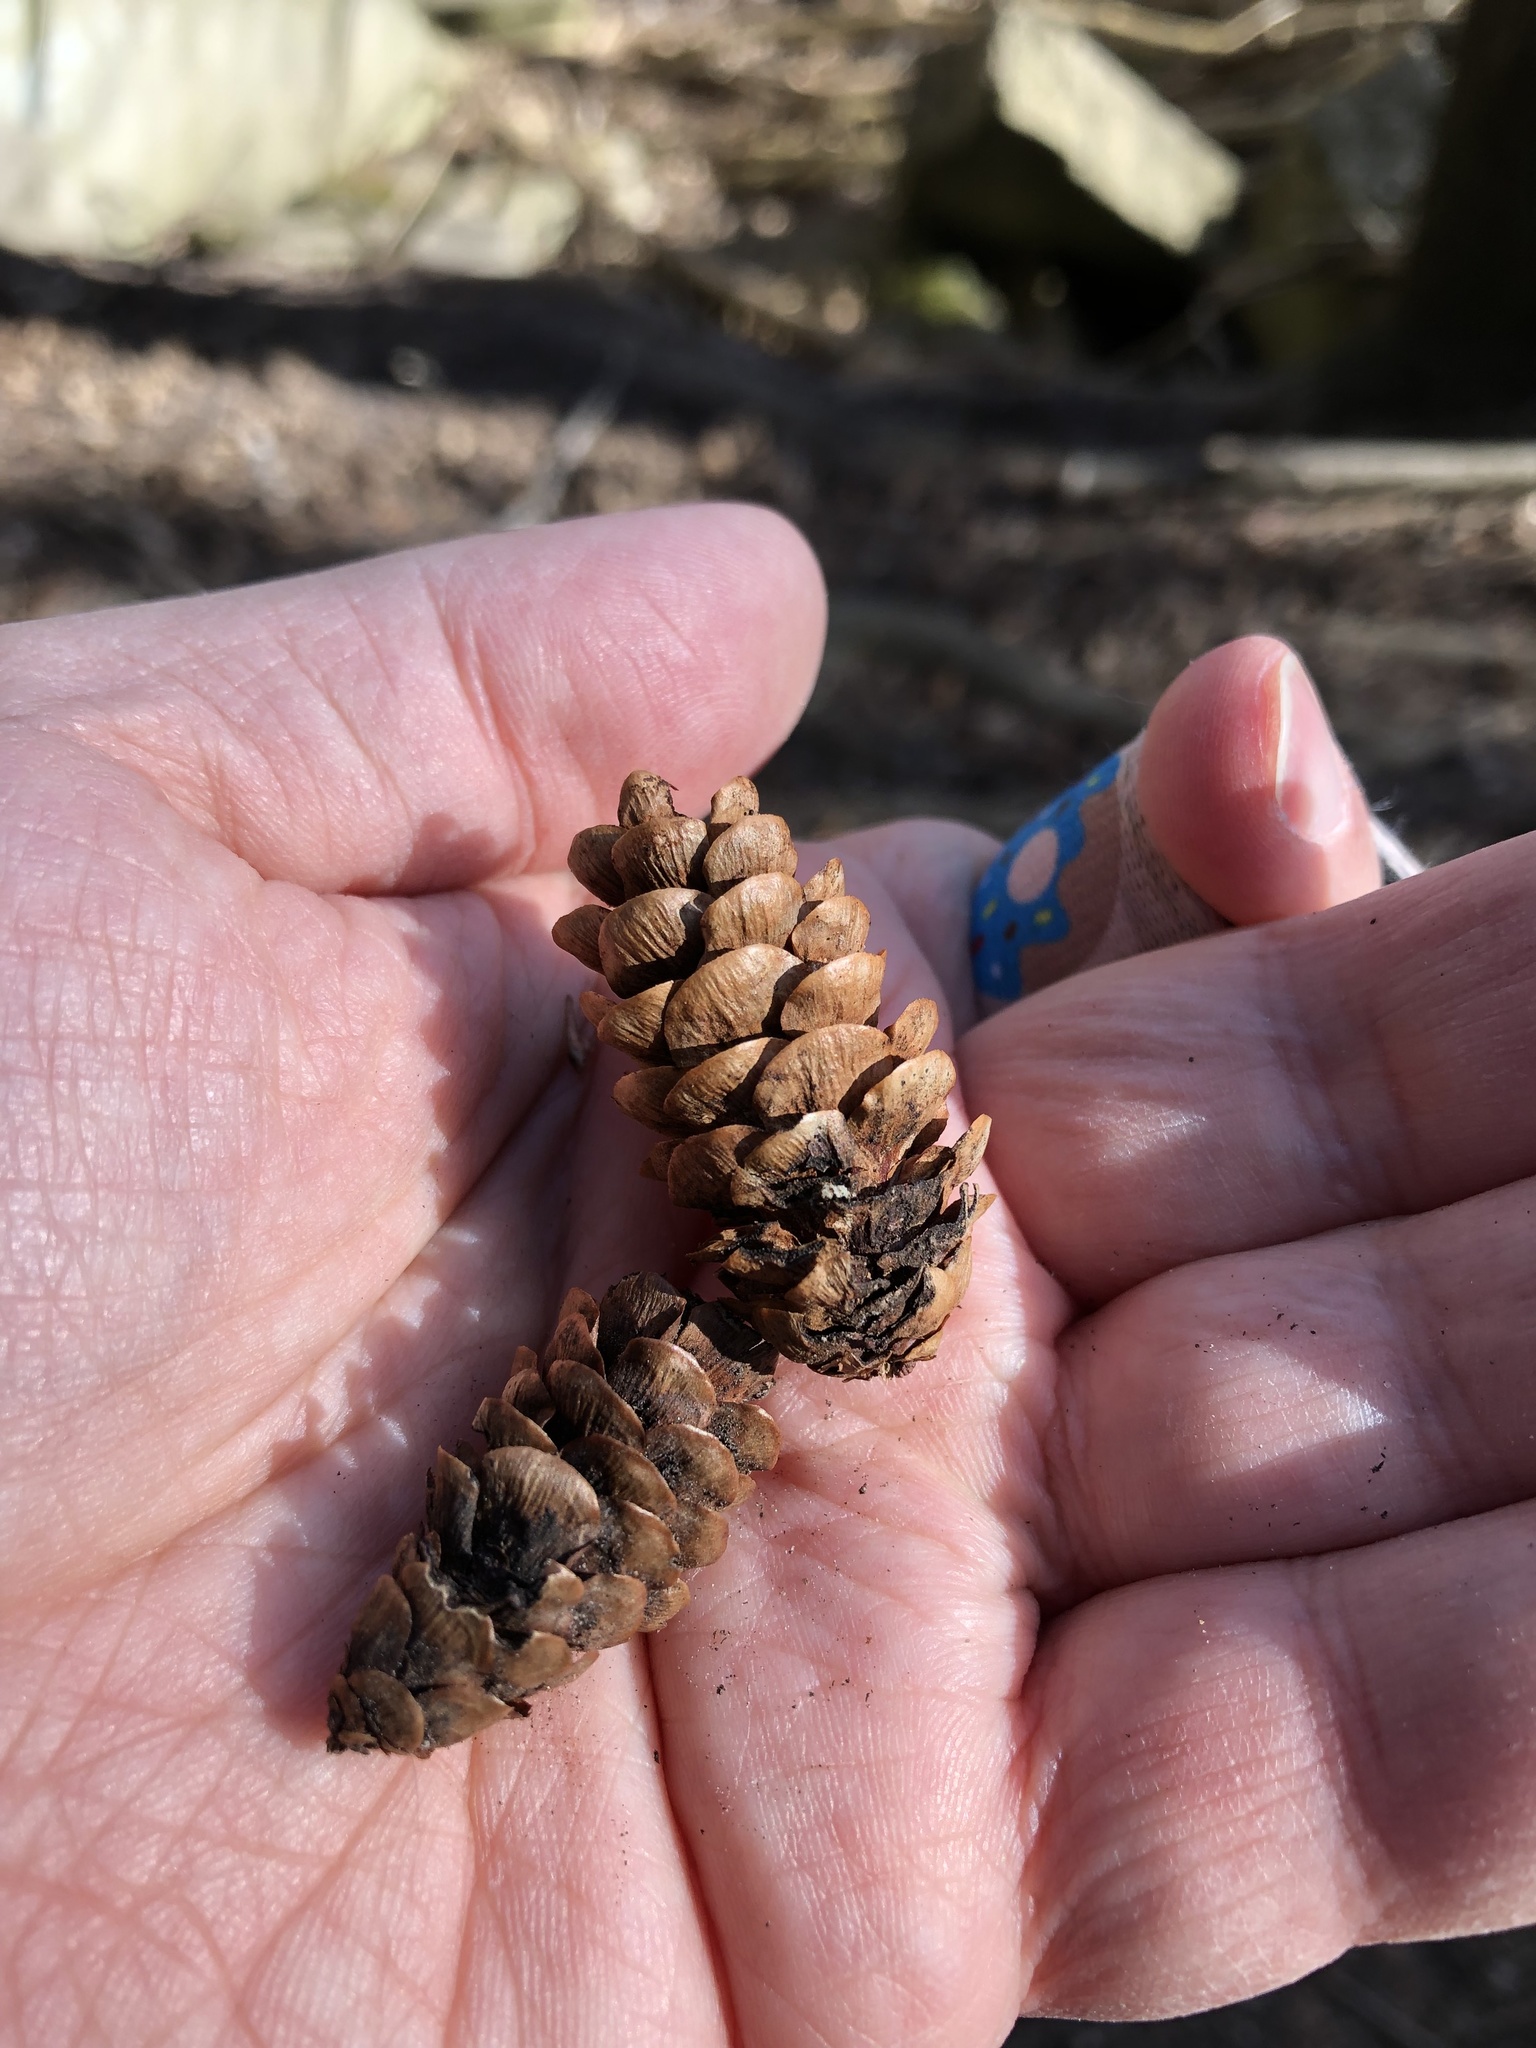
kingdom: Plantae
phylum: Tracheophyta
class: Pinopsida
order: Pinales
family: Pinaceae
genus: Picea
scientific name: Picea glauca
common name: White spruce
